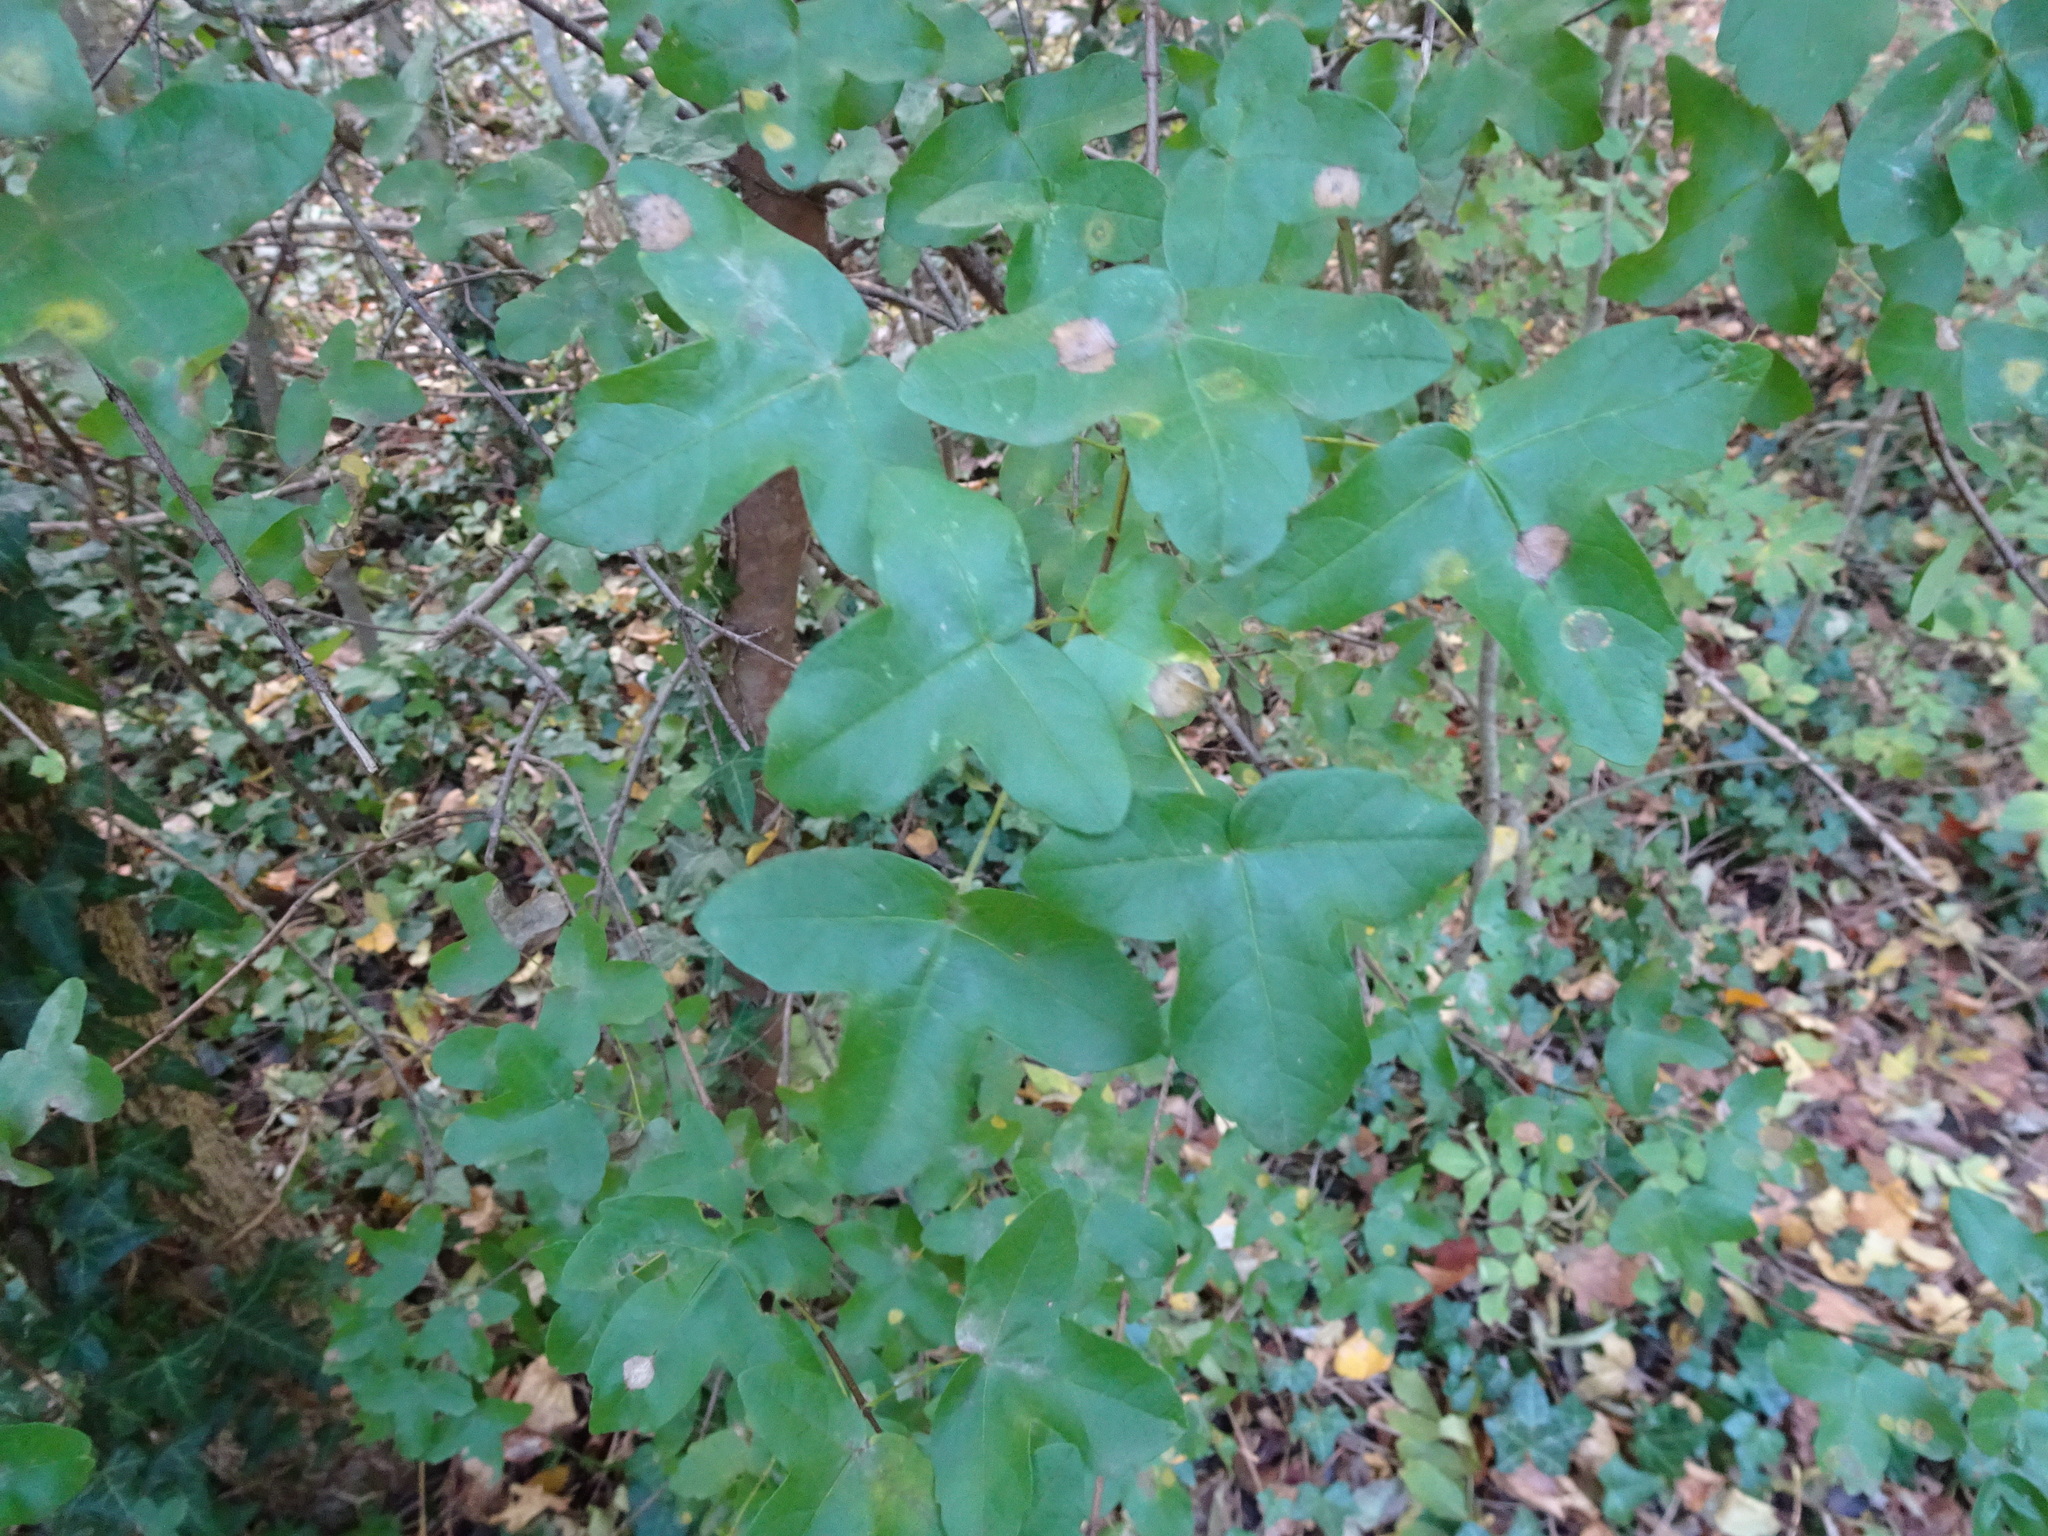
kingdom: Plantae
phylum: Tracheophyta
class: Magnoliopsida
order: Sapindales
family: Sapindaceae
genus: Acer
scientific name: Acer monspessulanum
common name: Montpellier maple
